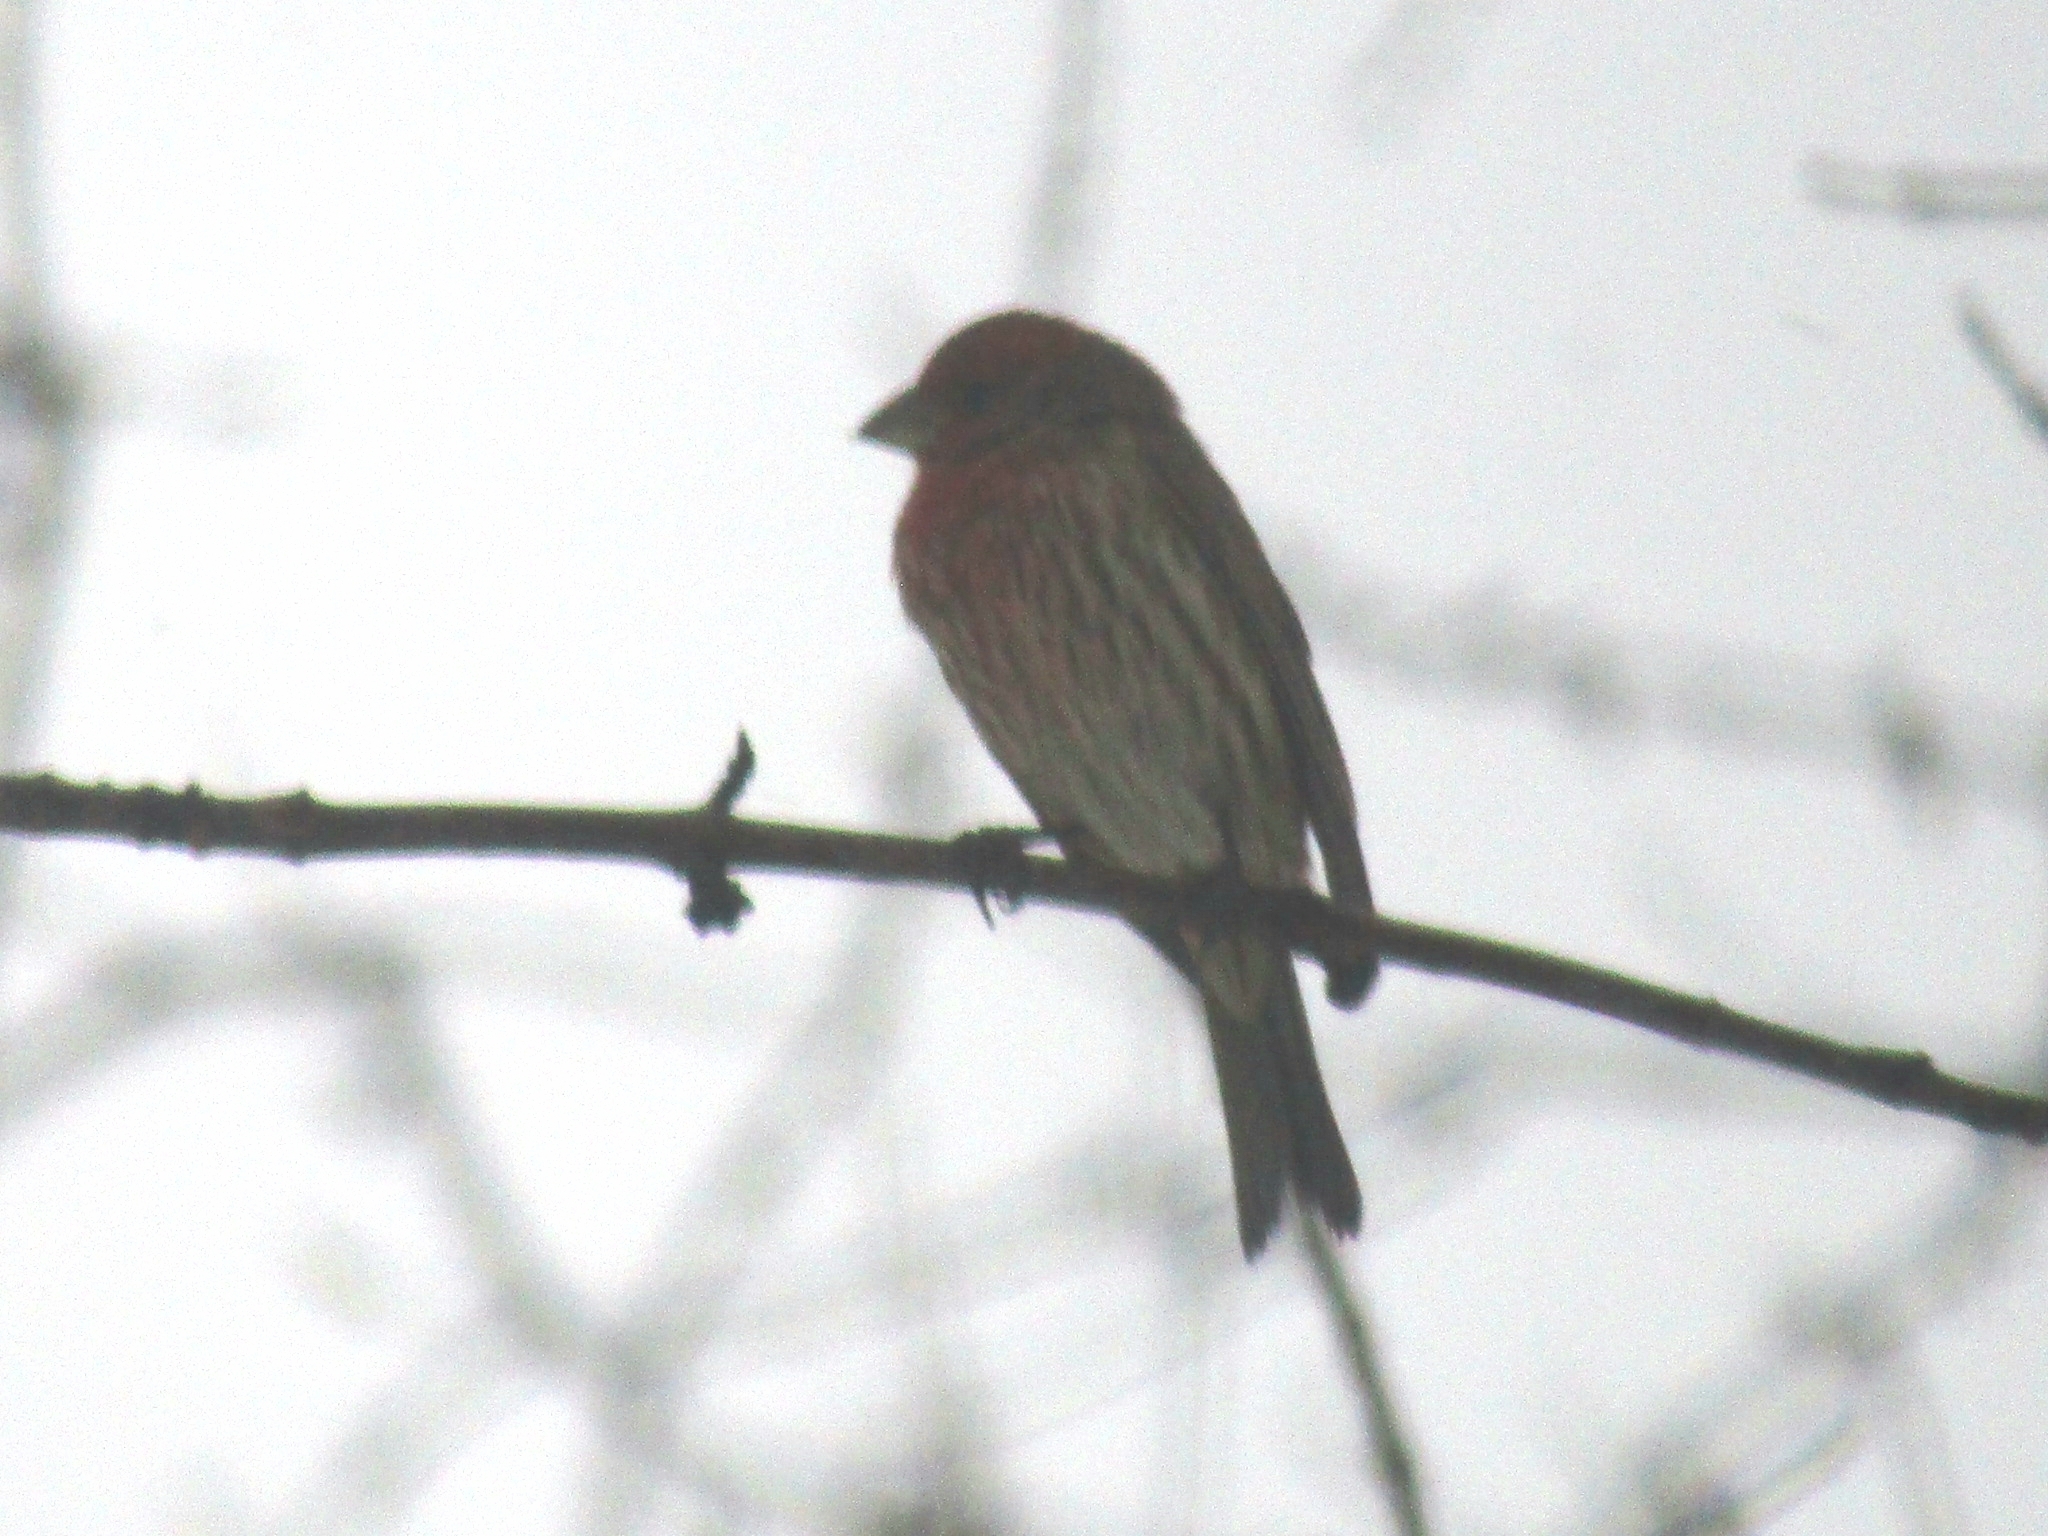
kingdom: Animalia
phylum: Chordata
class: Aves
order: Passeriformes
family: Fringillidae
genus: Haemorhous
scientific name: Haemorhous mexicanus
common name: House finch
